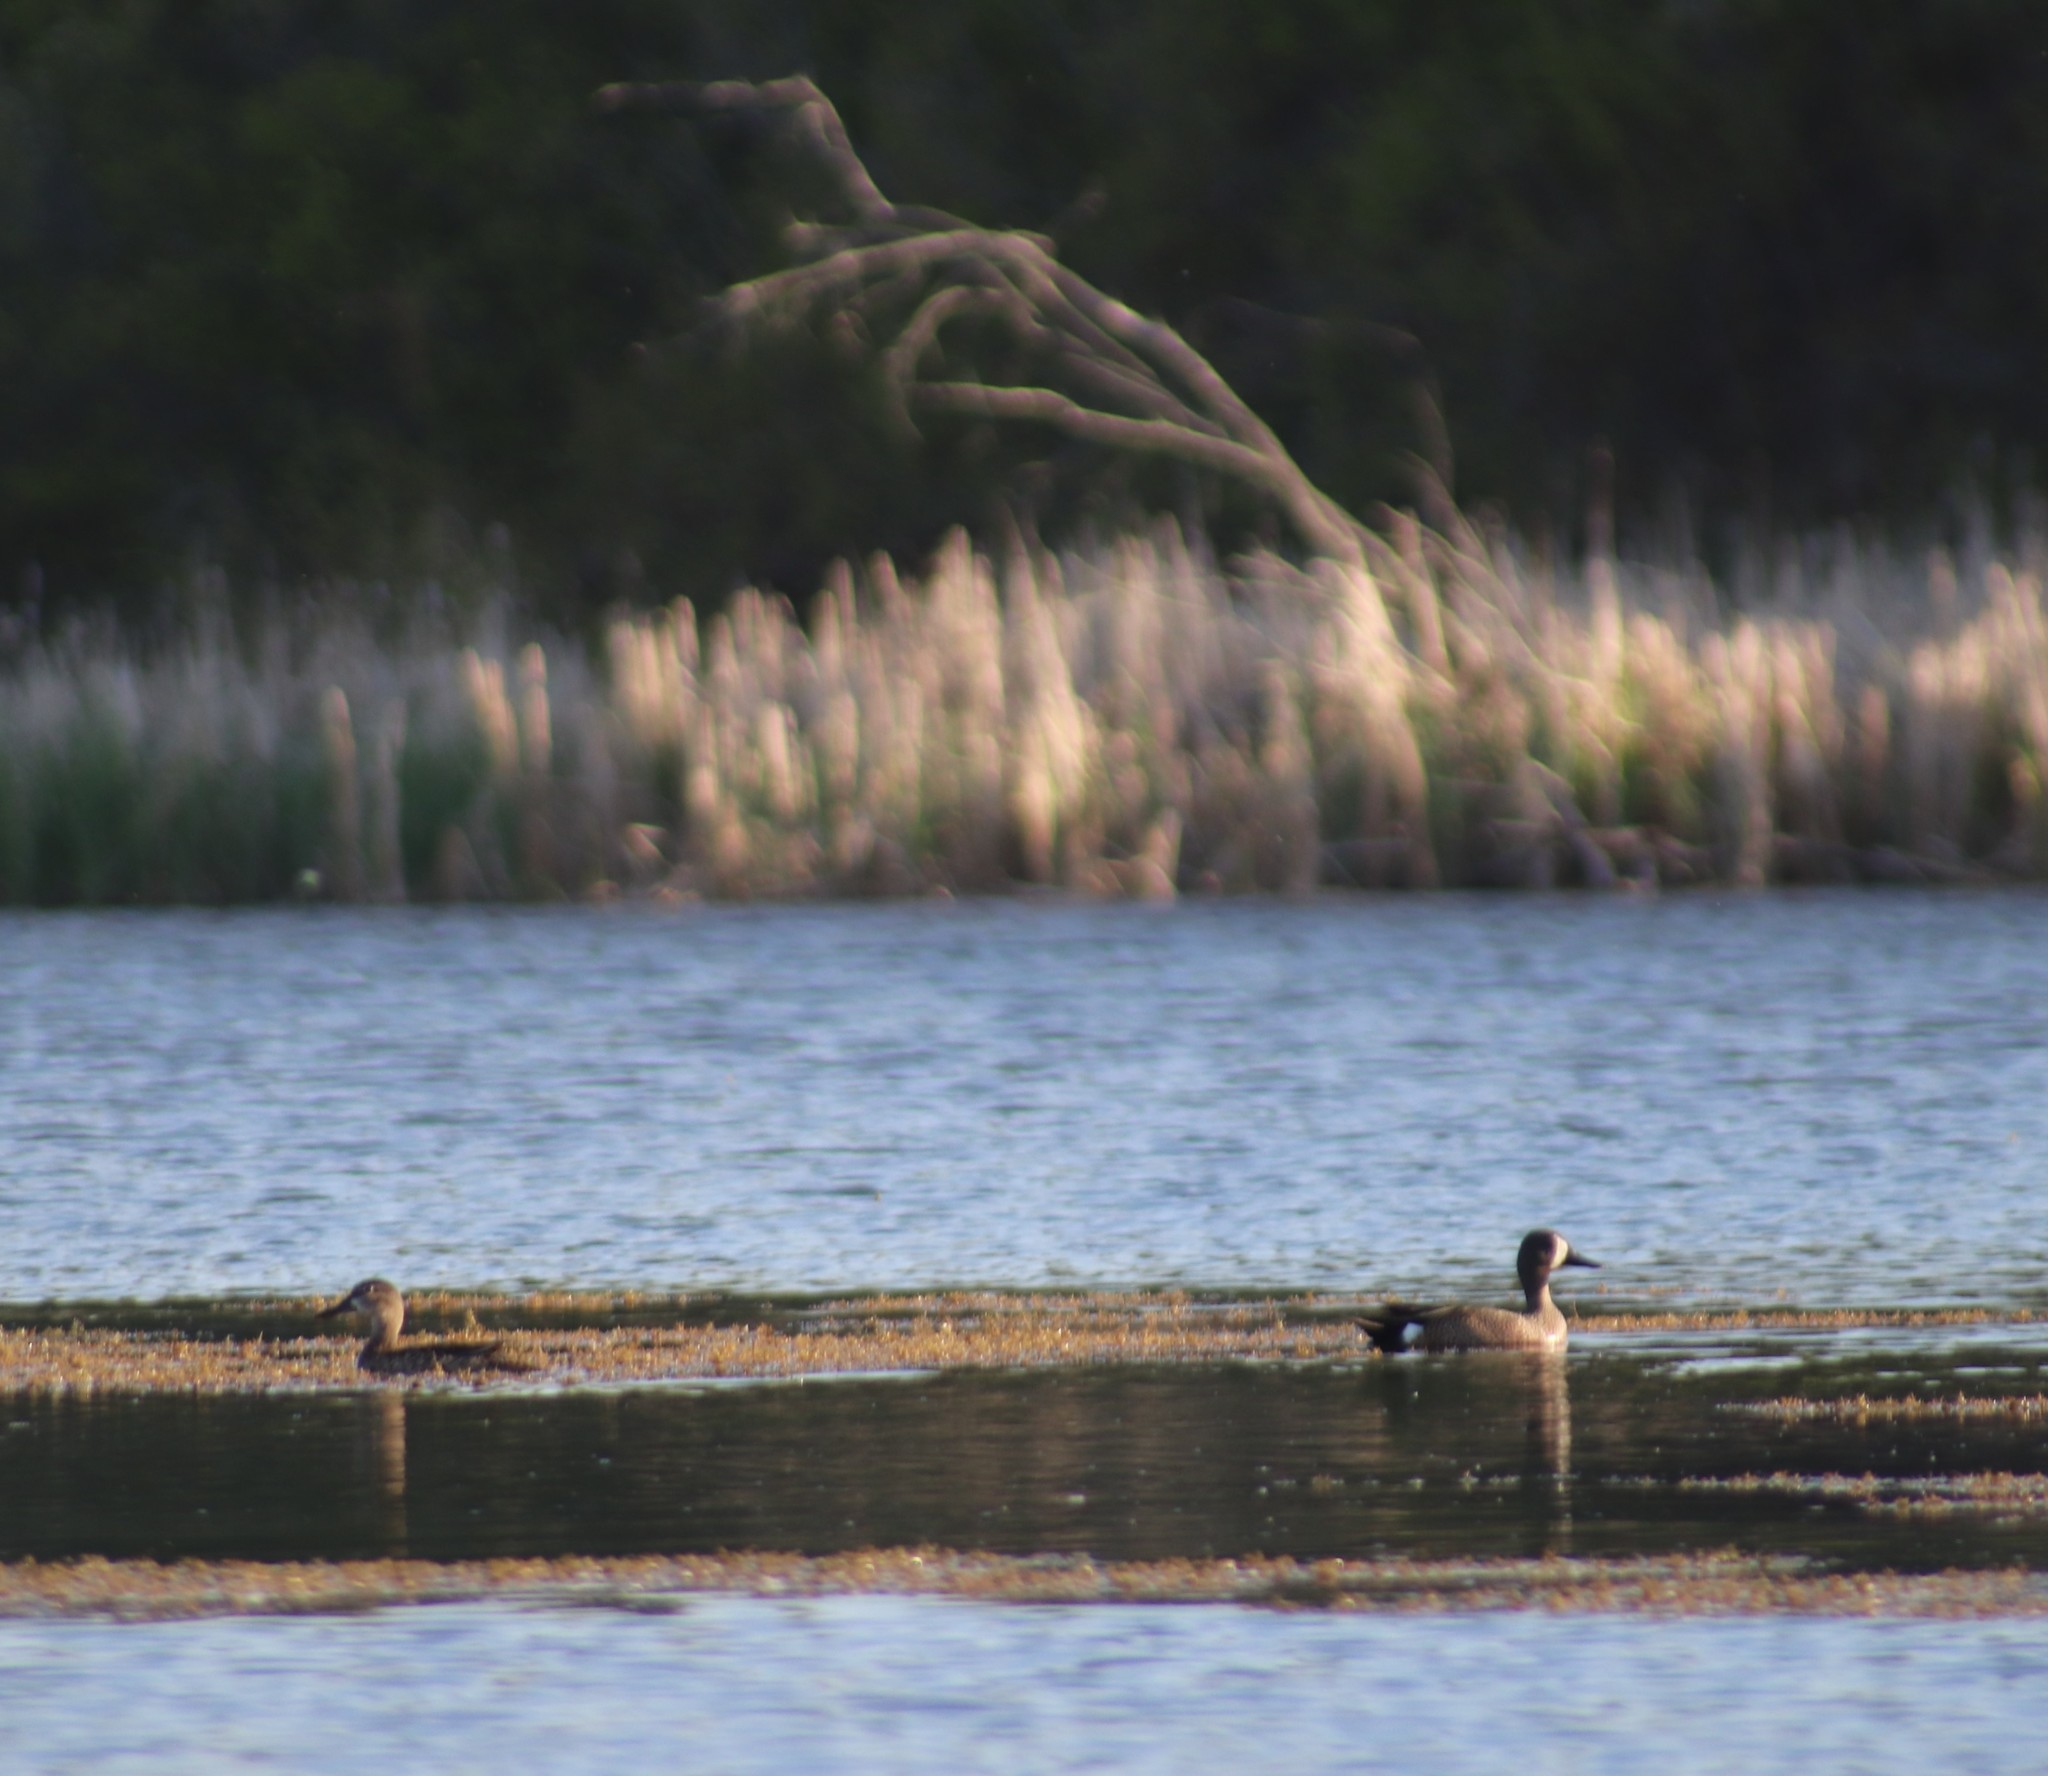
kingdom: Animalia
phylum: Chordata
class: Aves
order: Anseriformes
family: Anatidae
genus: Spatula
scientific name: Spatula discors
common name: Blue-winged teal
